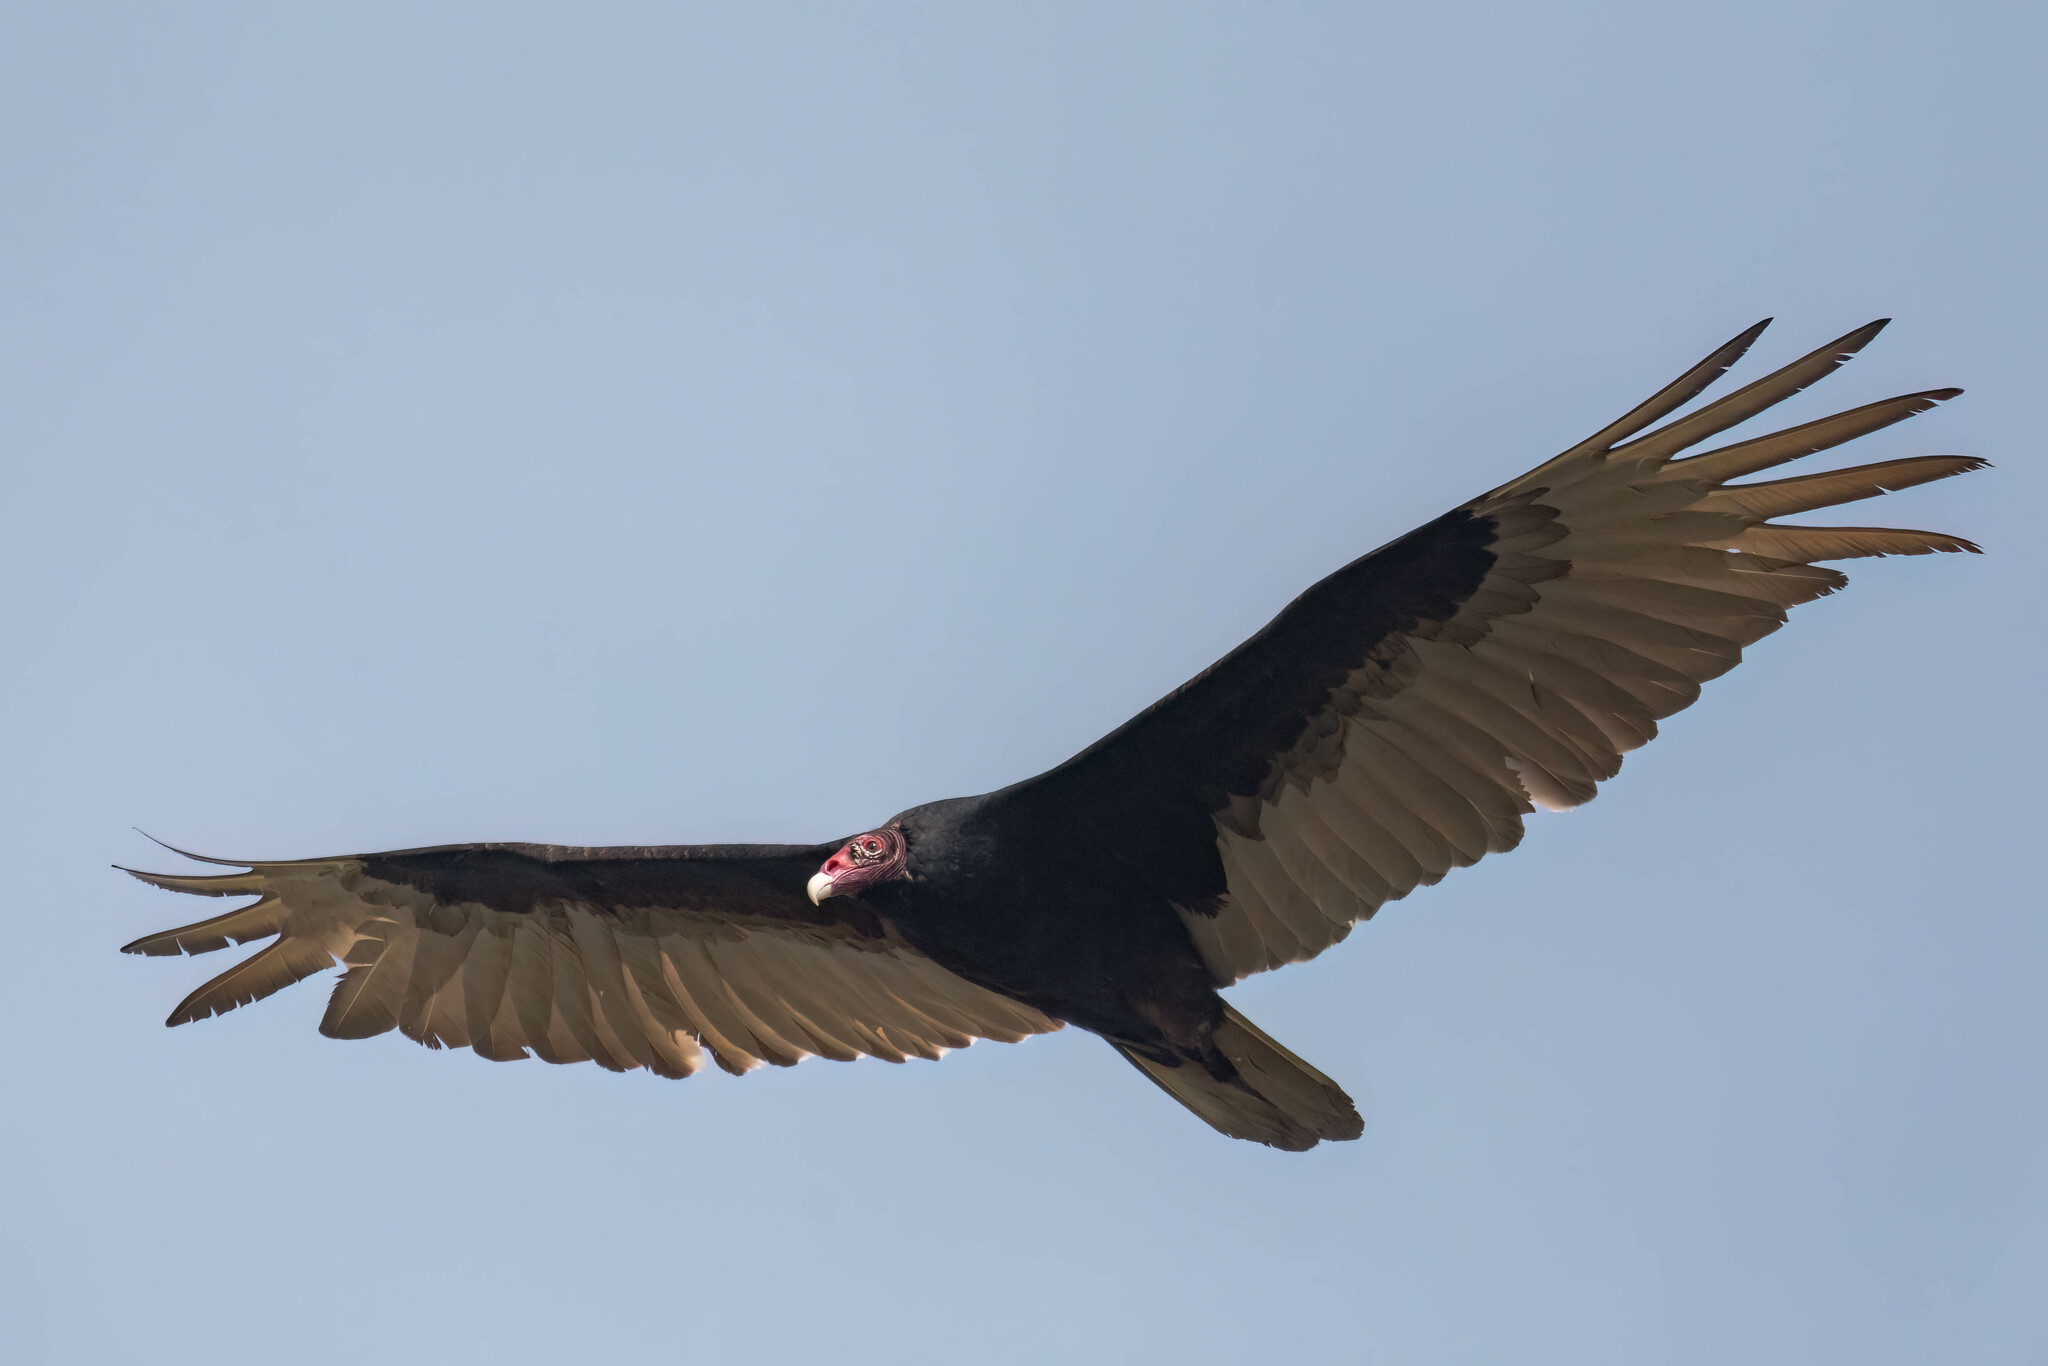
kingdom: Animalia
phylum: Chordata
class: Aves
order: Accipitriformes
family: Cathartidae
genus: Cathartes
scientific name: Cathartes aura
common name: Turkey vulture
